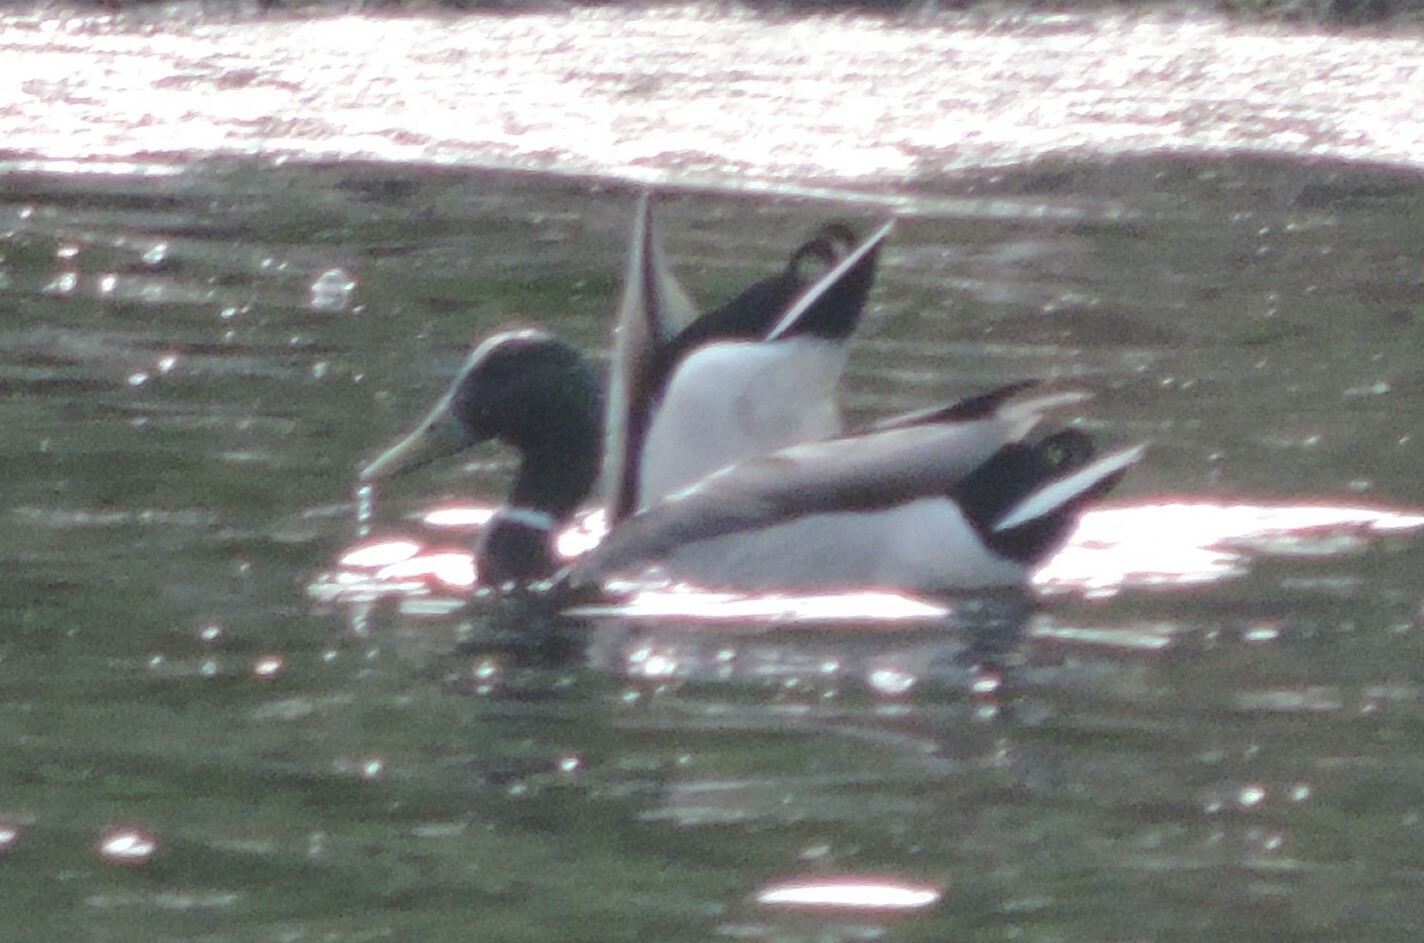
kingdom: Animalia
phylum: Chordata
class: Aves
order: Anseriformes
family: Anatidae
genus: Anas
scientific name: Anas platyrhynchos
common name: Mallard
